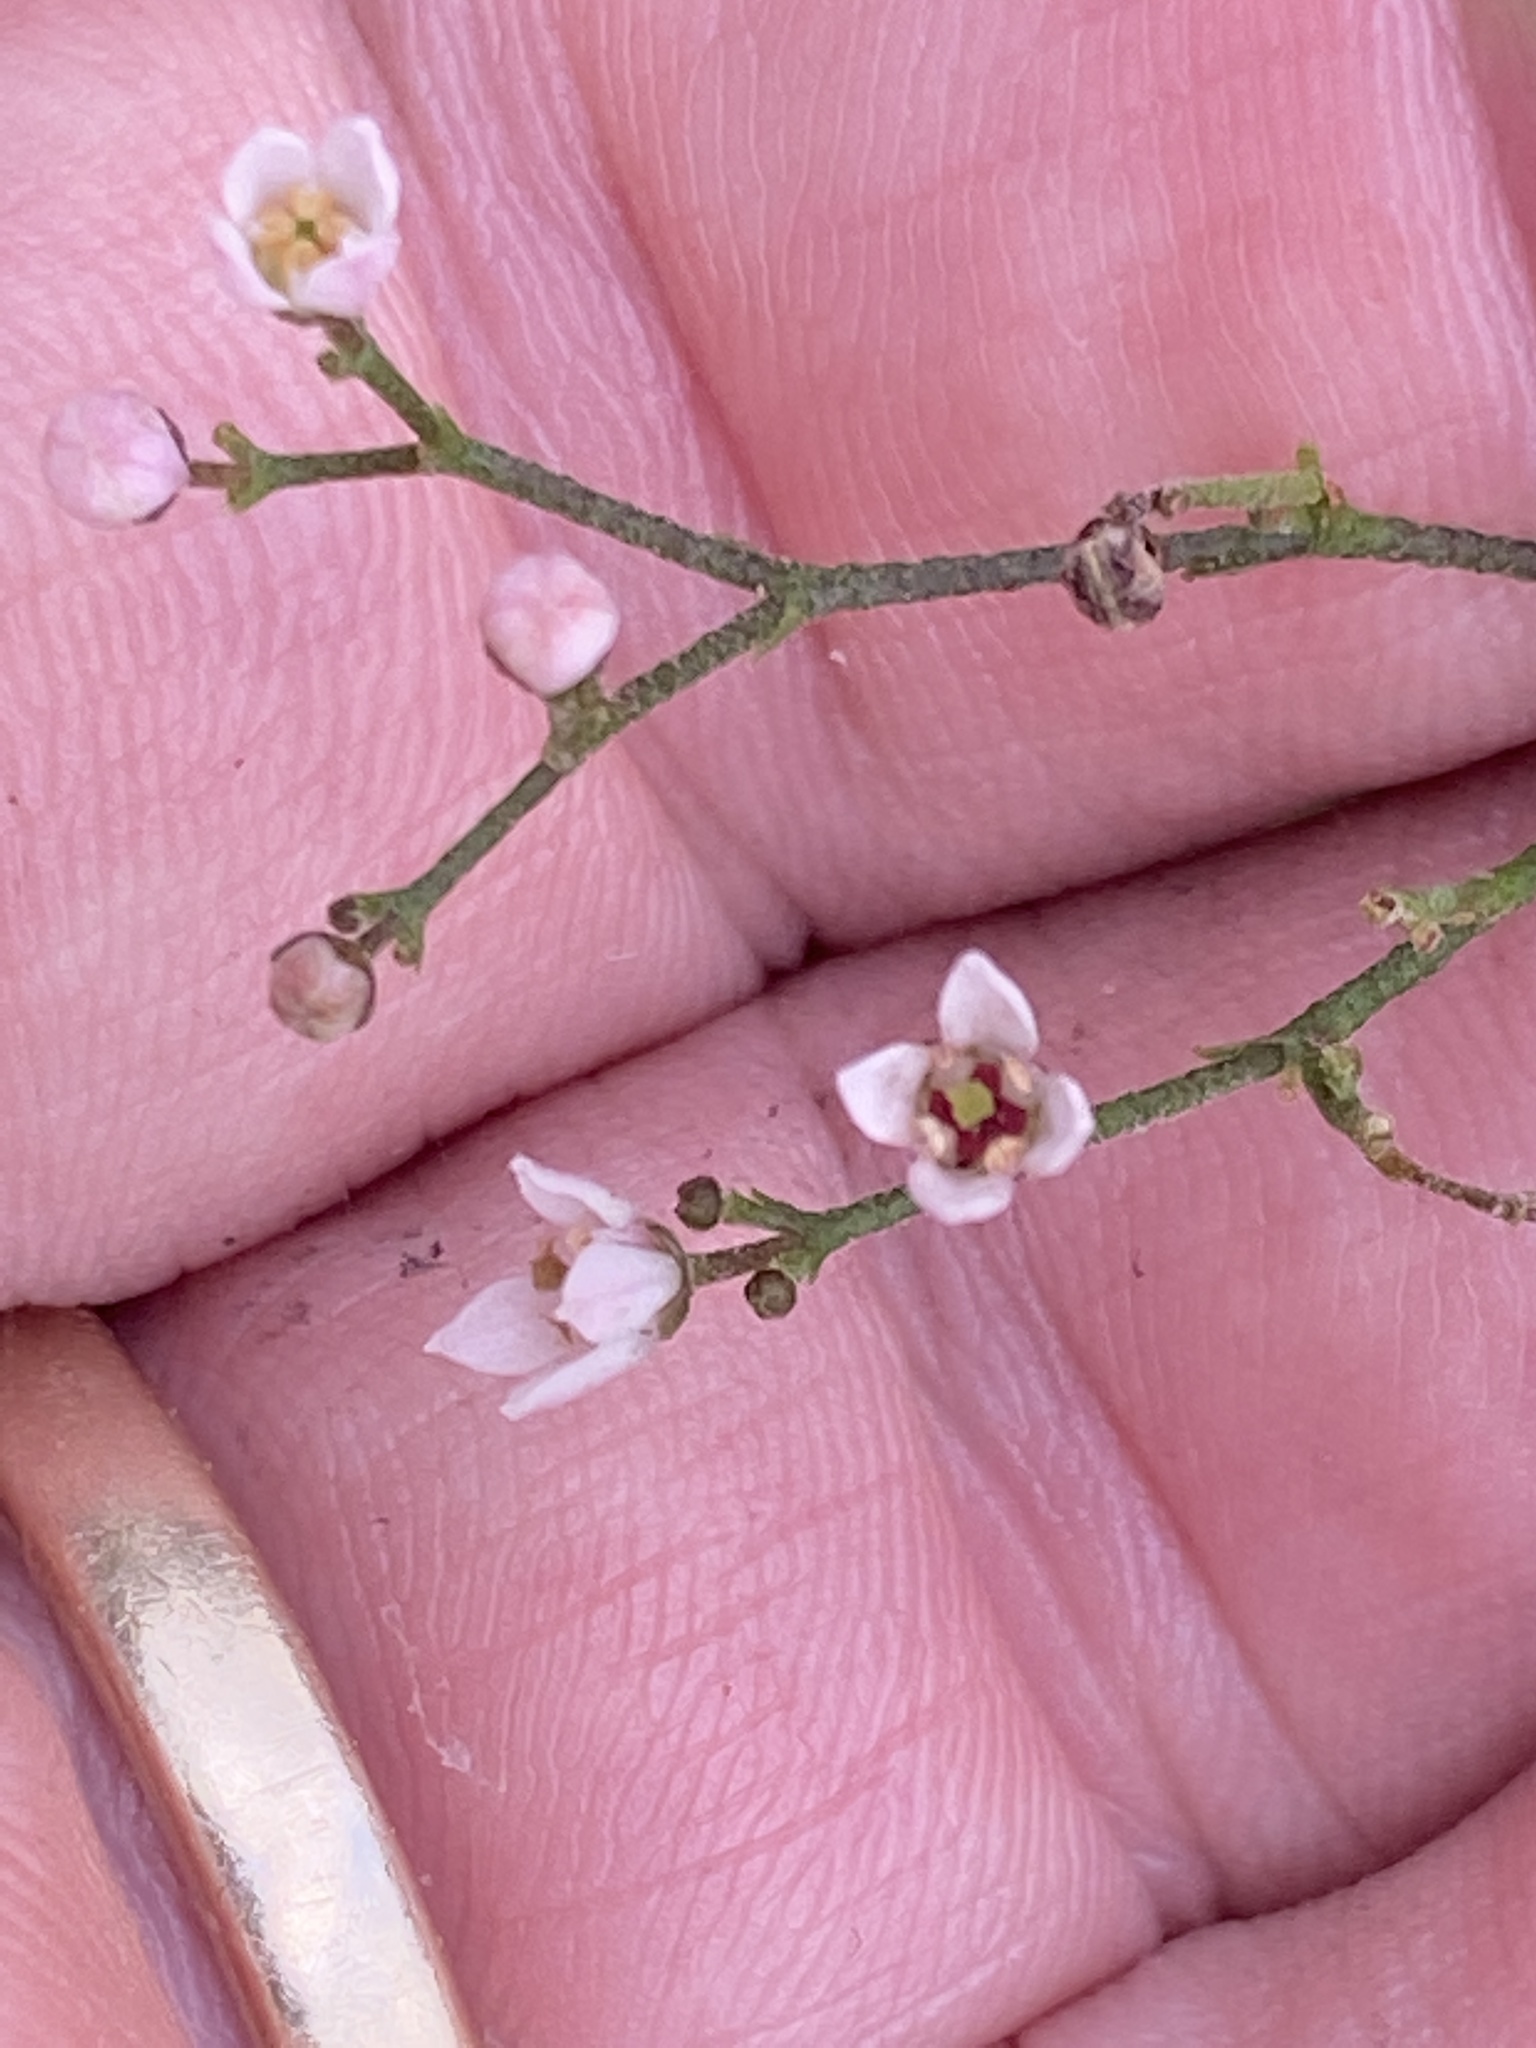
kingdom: Plantae
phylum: Tracheophyta
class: Magnoliopsida
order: Sapindales
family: Rutaceae
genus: Zieria
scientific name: Zieria smithii
